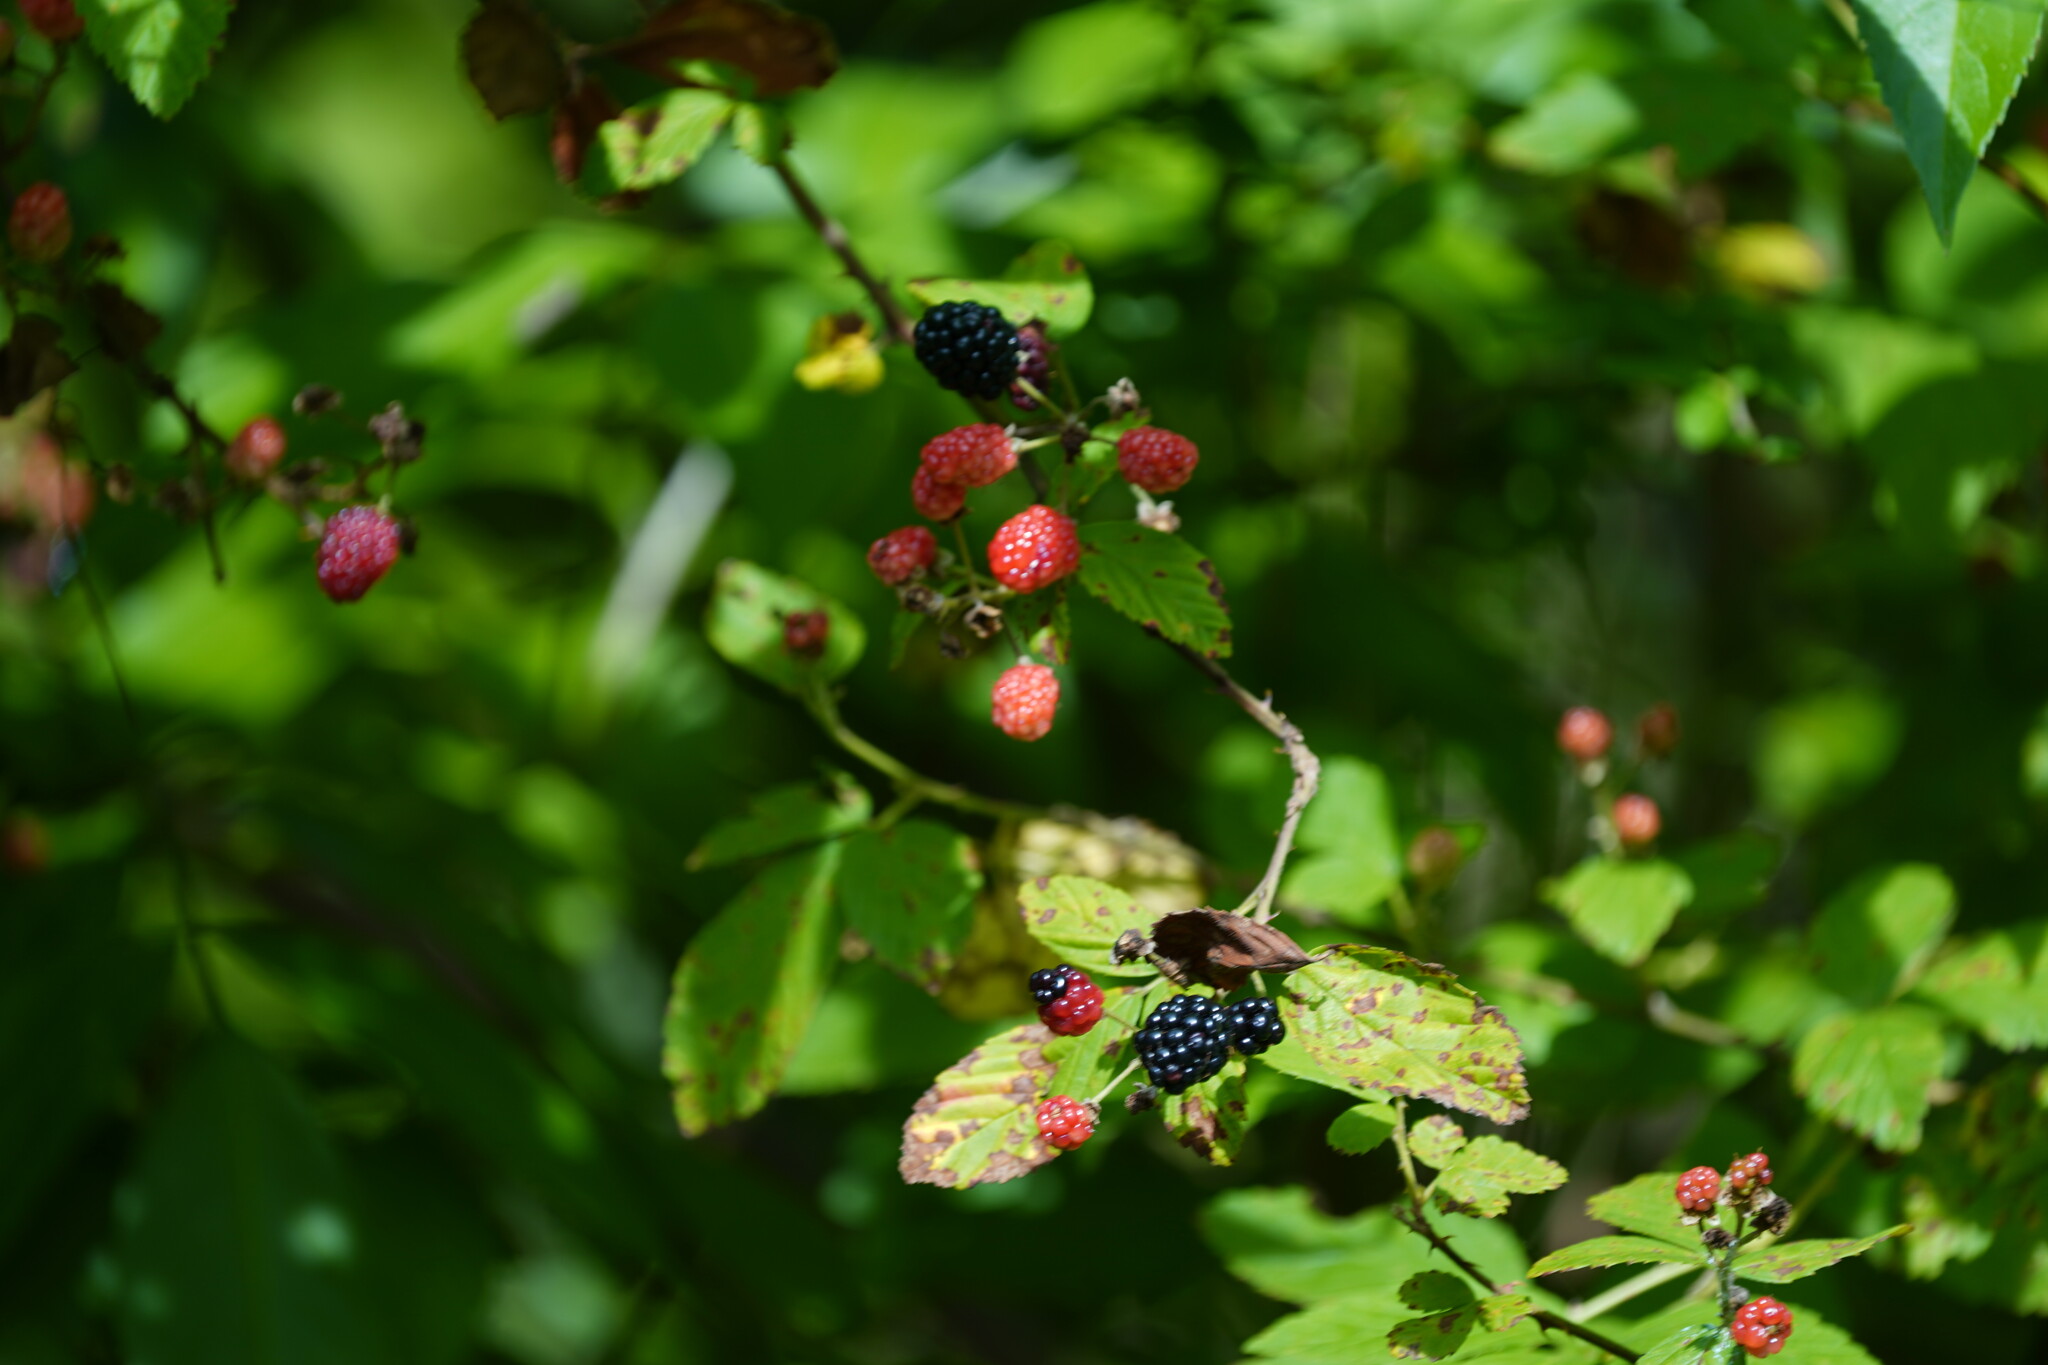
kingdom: Plantae
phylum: Tracheophyta
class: Magnoliopsida
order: Rosales
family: Rosaceae
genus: Rubus
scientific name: Rubus trivialis
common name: Southern dewberry
